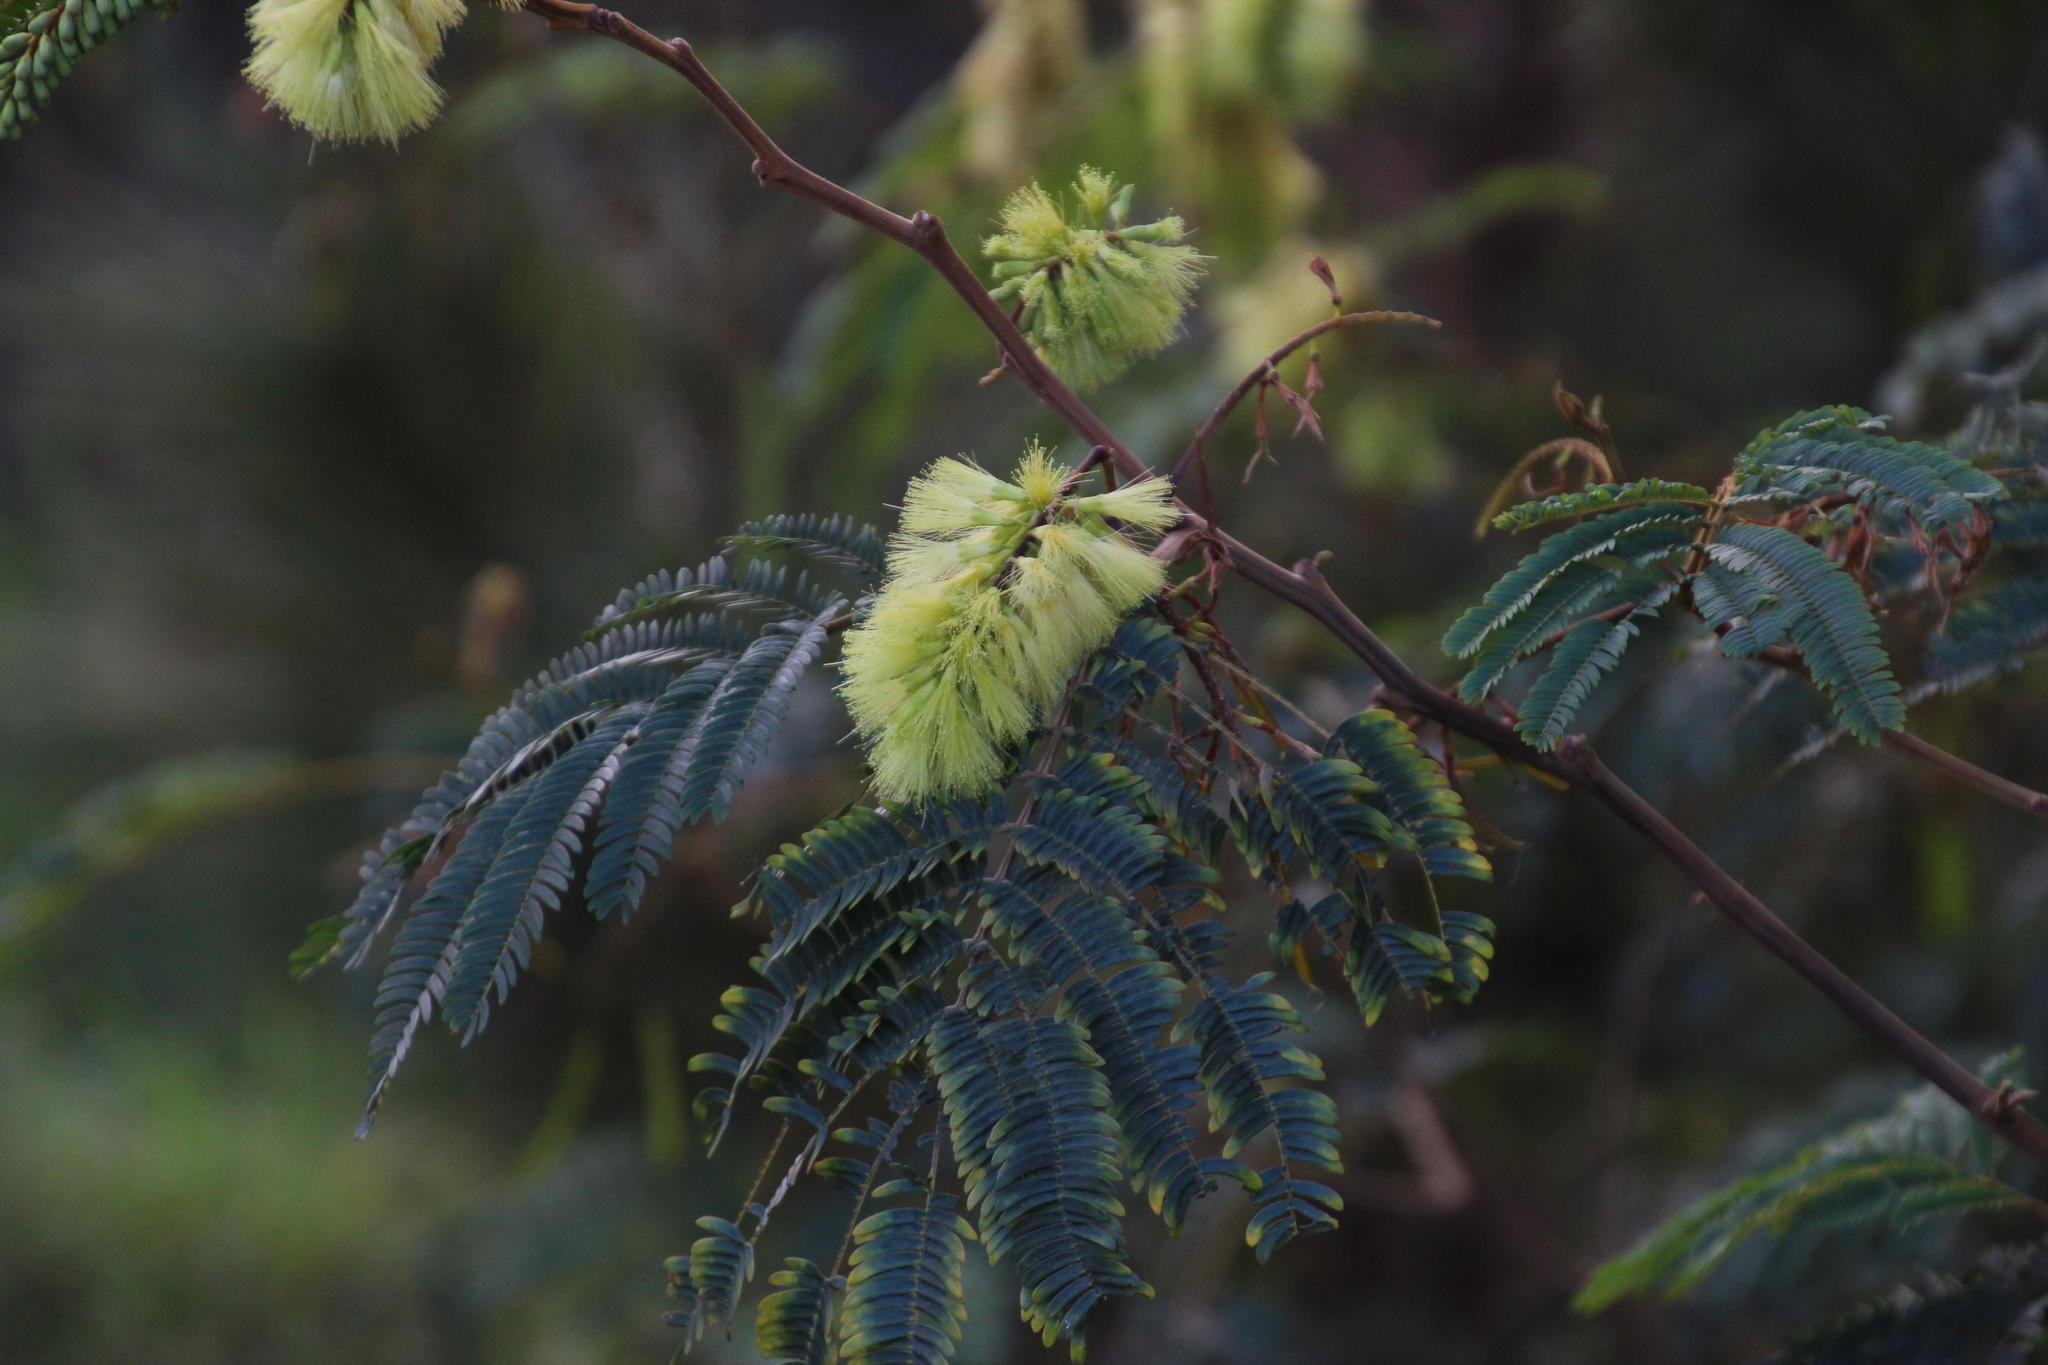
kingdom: Plantae
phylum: Tracheophyta
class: Magnoliopsida
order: Fabales
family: Fabaceae
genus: Paraserianthes
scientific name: Paraserianthes lophantha
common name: Plume albizia
